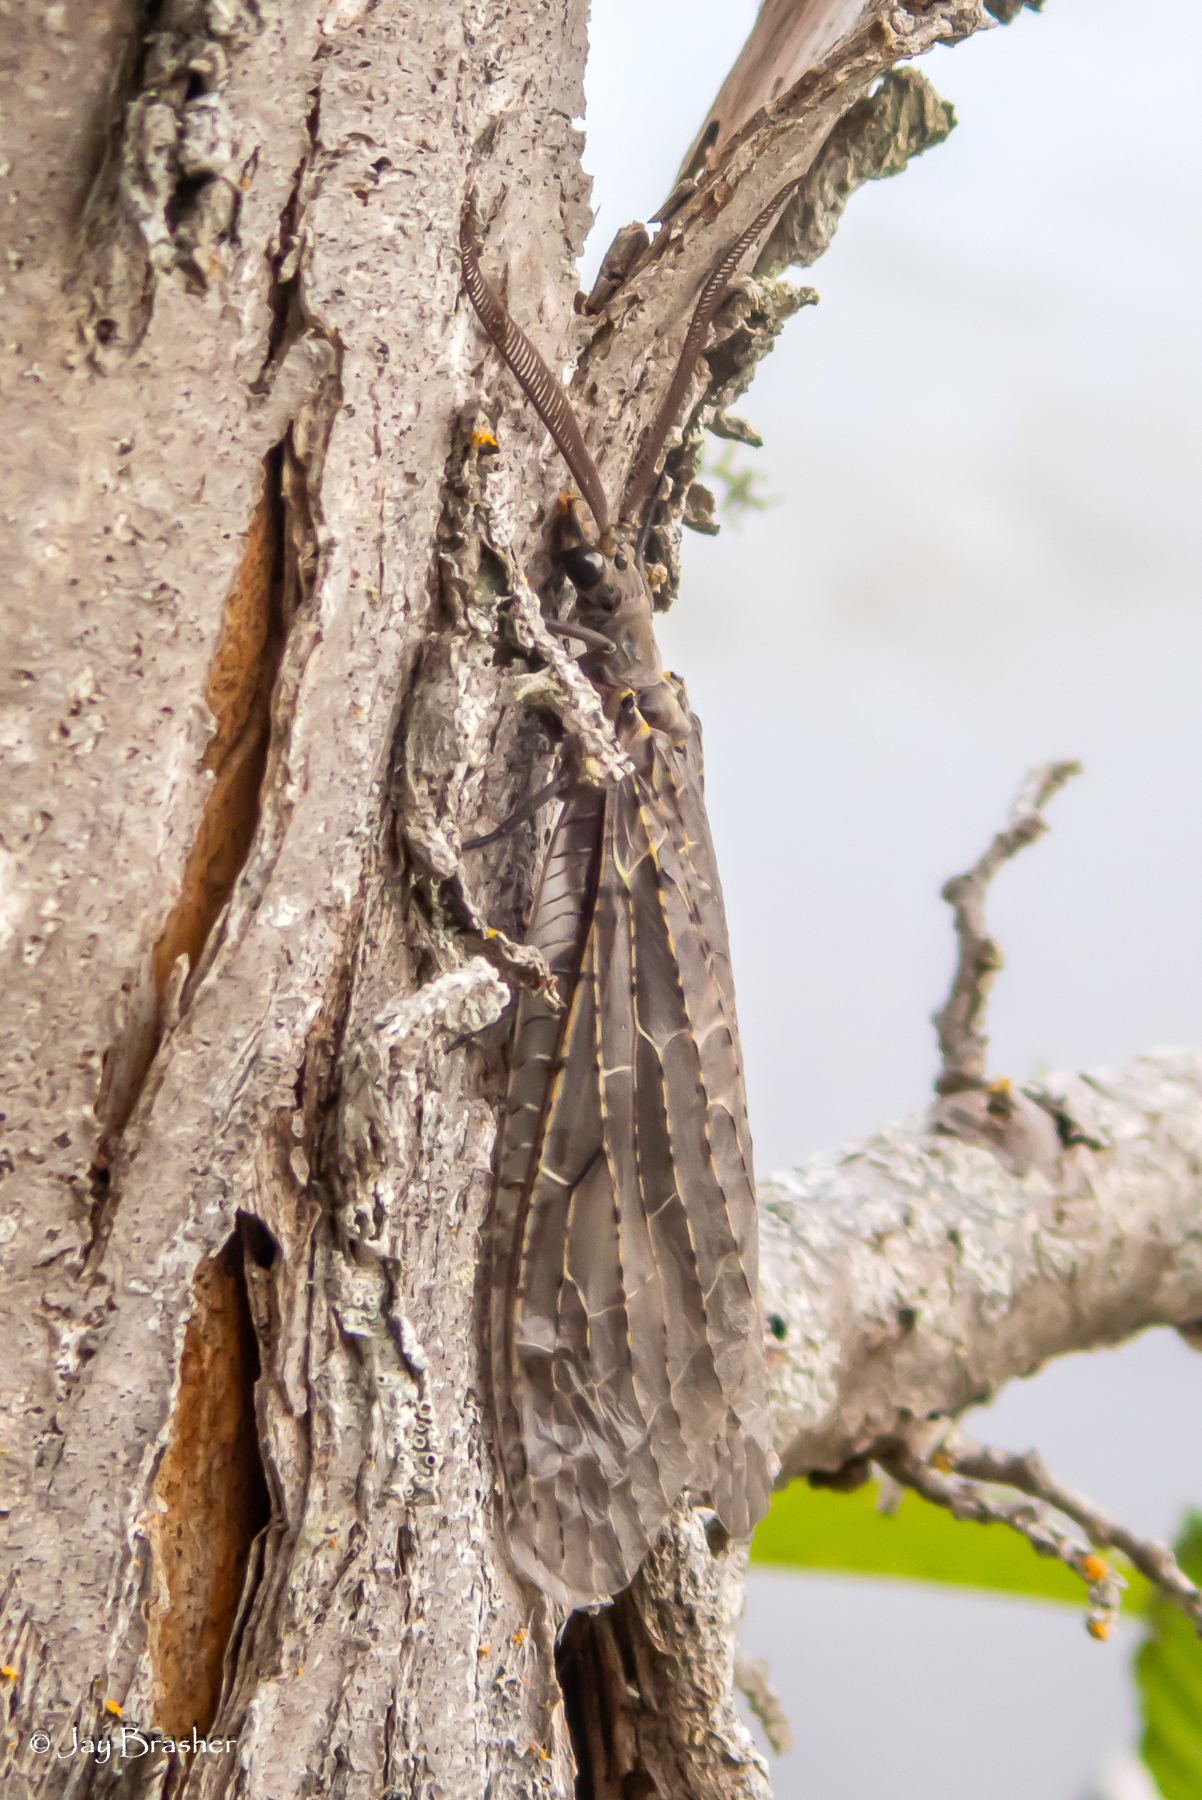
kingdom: Animalia
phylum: Arthropoda
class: Insecta
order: Megaloptera
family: Corydalidae
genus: Chauliodes
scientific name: Chauliodes rastricornis
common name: Spring fishfly
